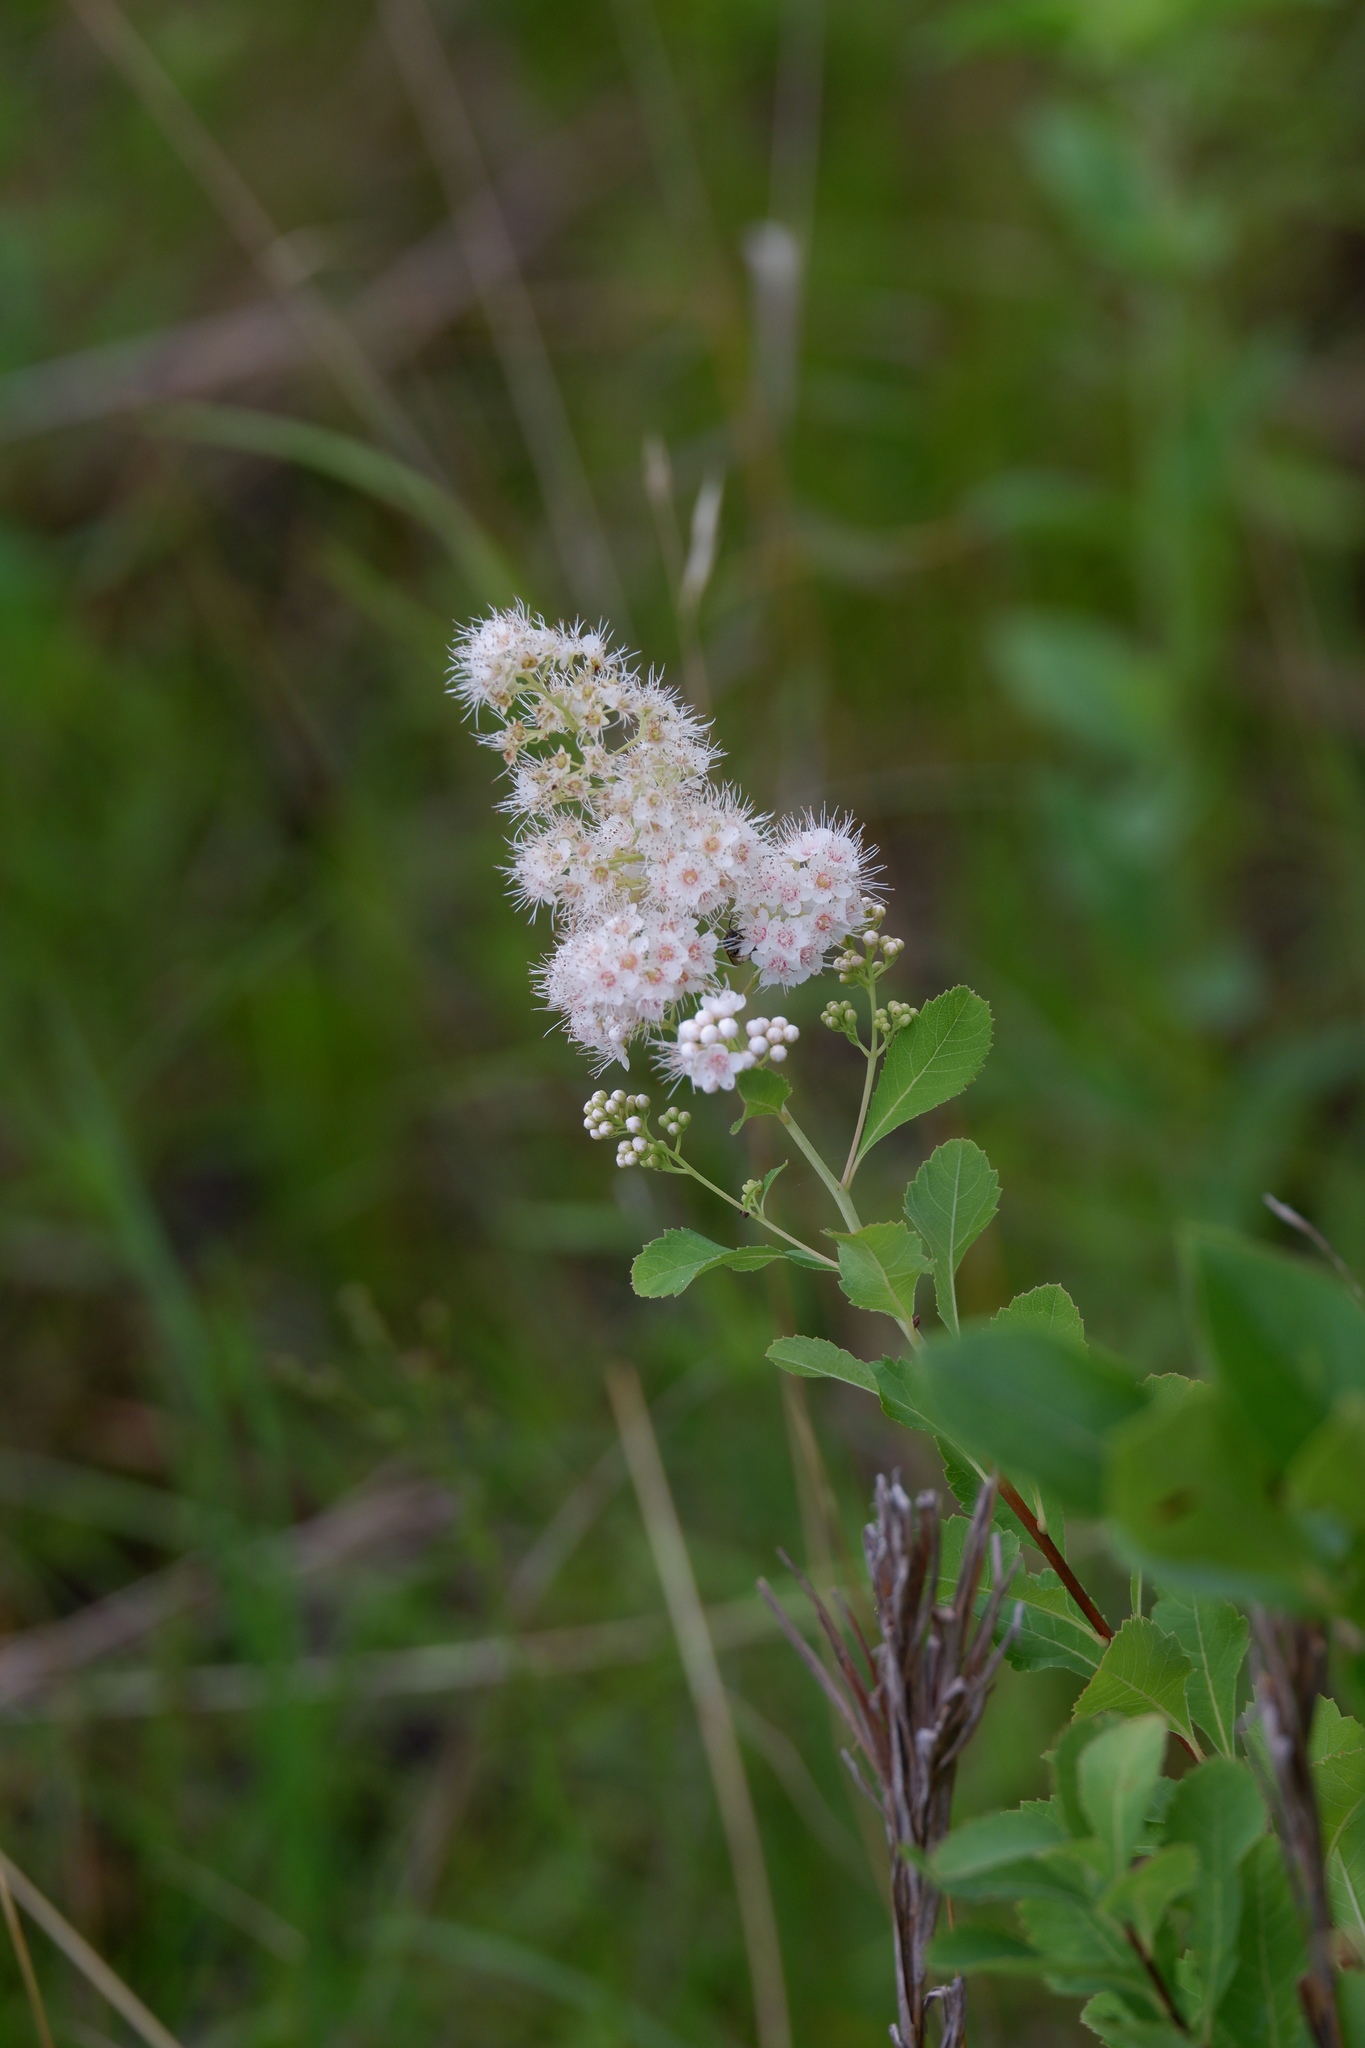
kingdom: Plantae
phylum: Tracheophyta
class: Magnoliopsida
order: Rosales
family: Rosaceae
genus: Spiraea
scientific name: Spiraea alba
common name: Pale bridewort
